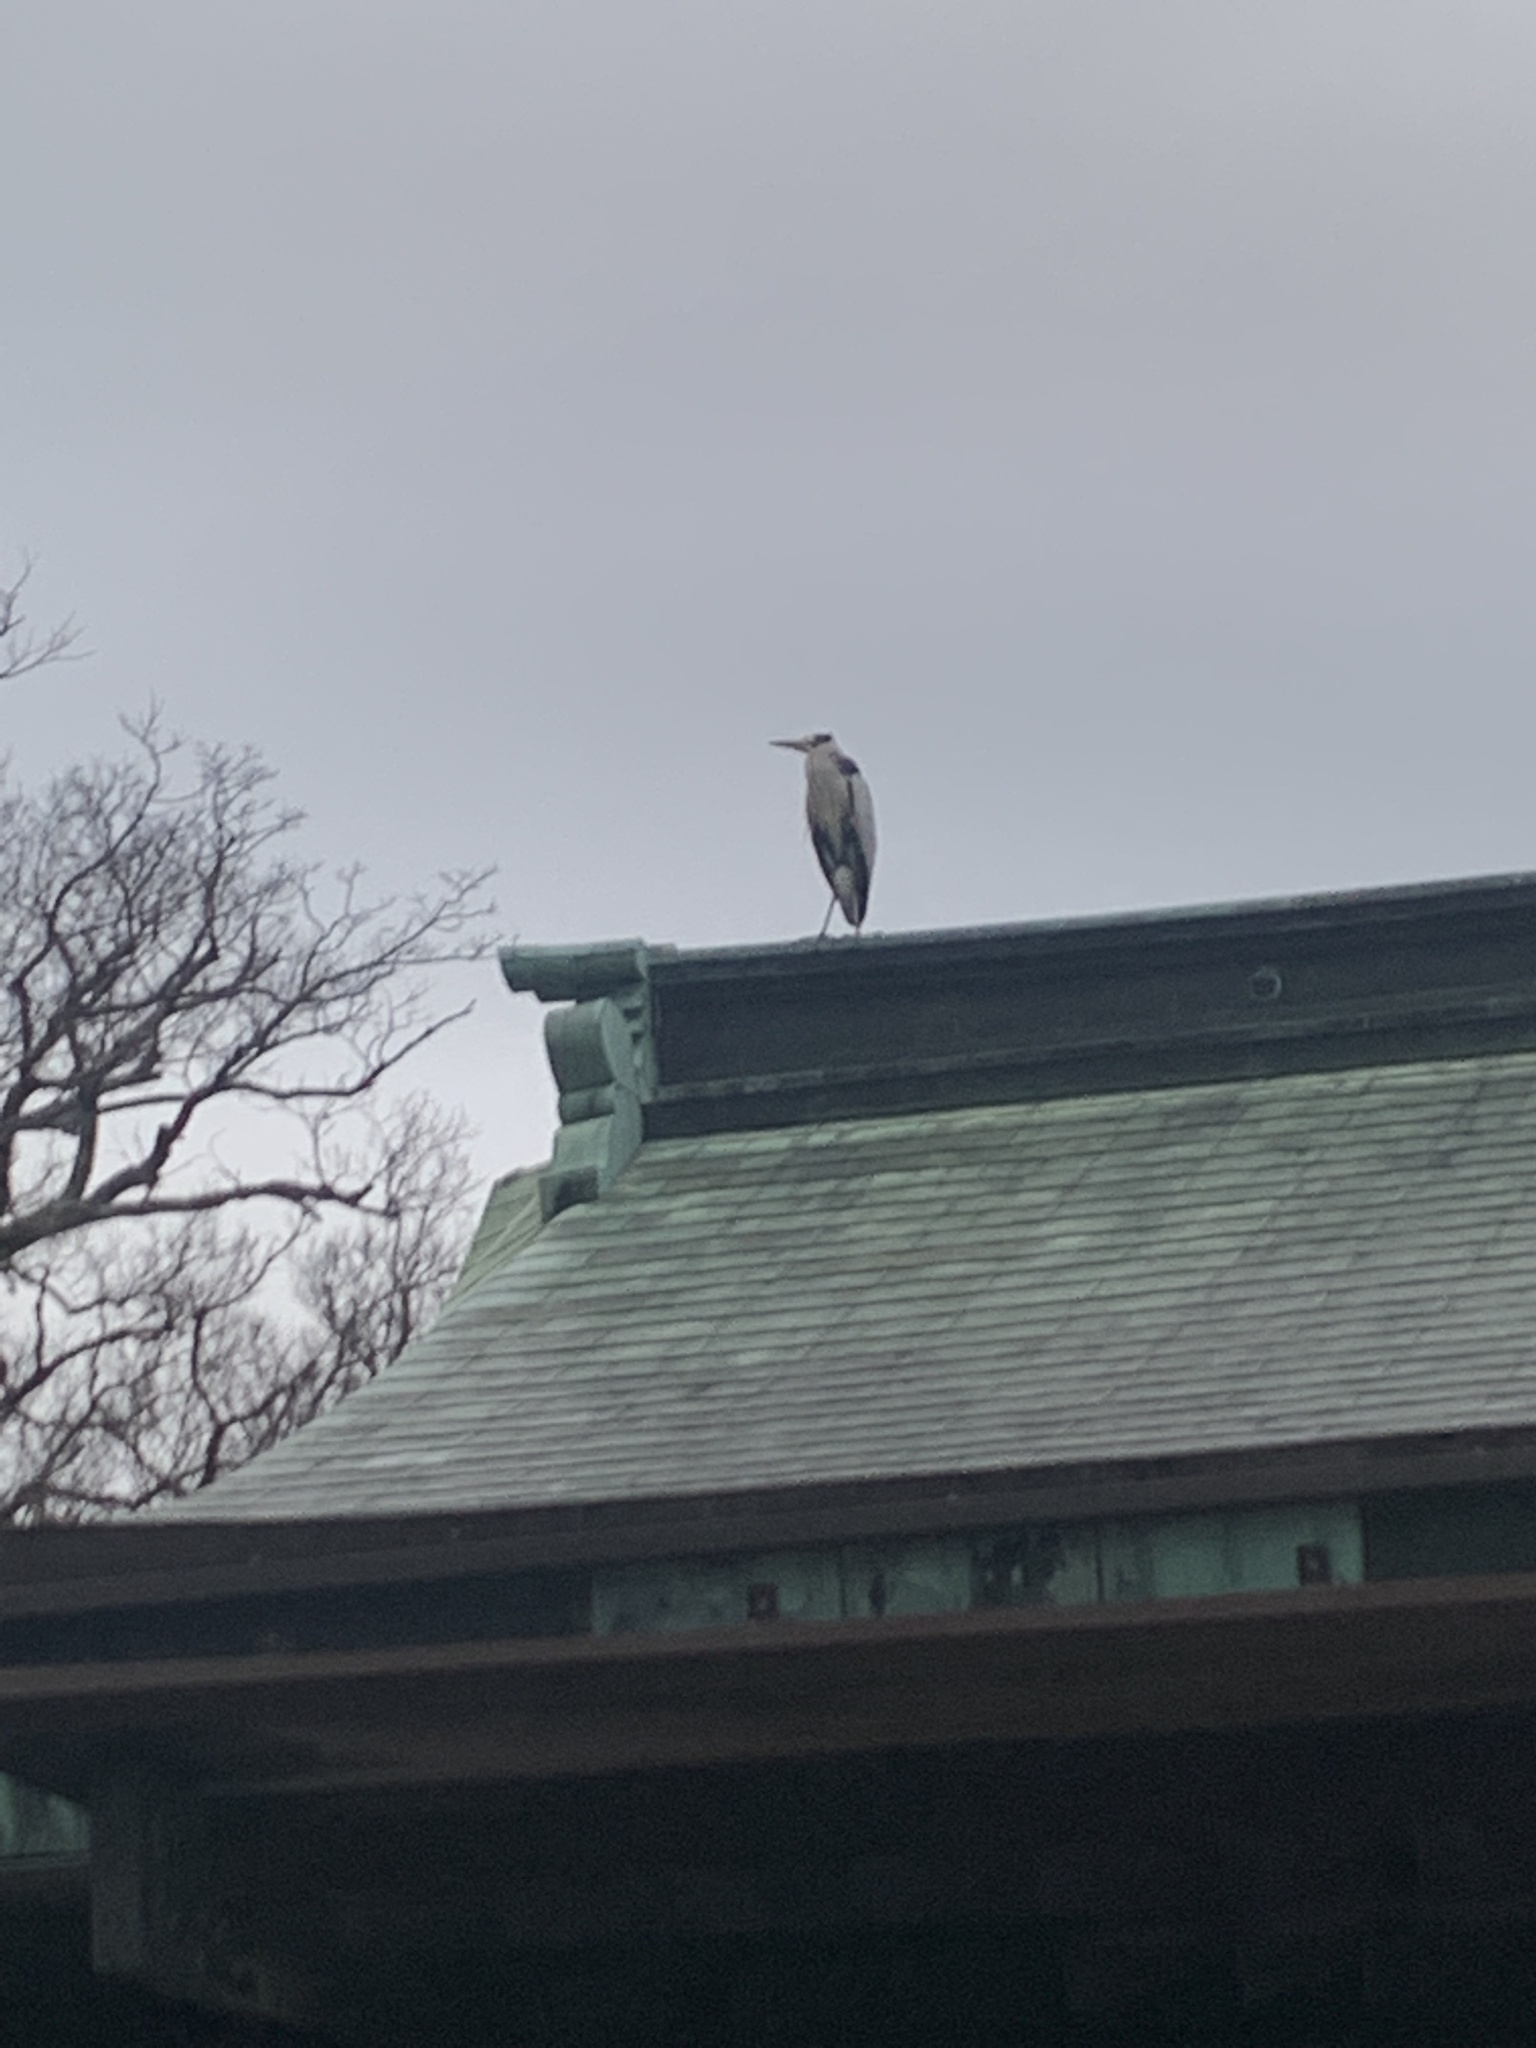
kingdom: Animalia
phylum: Chordata
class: Aves
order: Pelecaniformes
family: Ardeidae
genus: Ardea
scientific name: Ardea cinerea
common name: Grey heron
